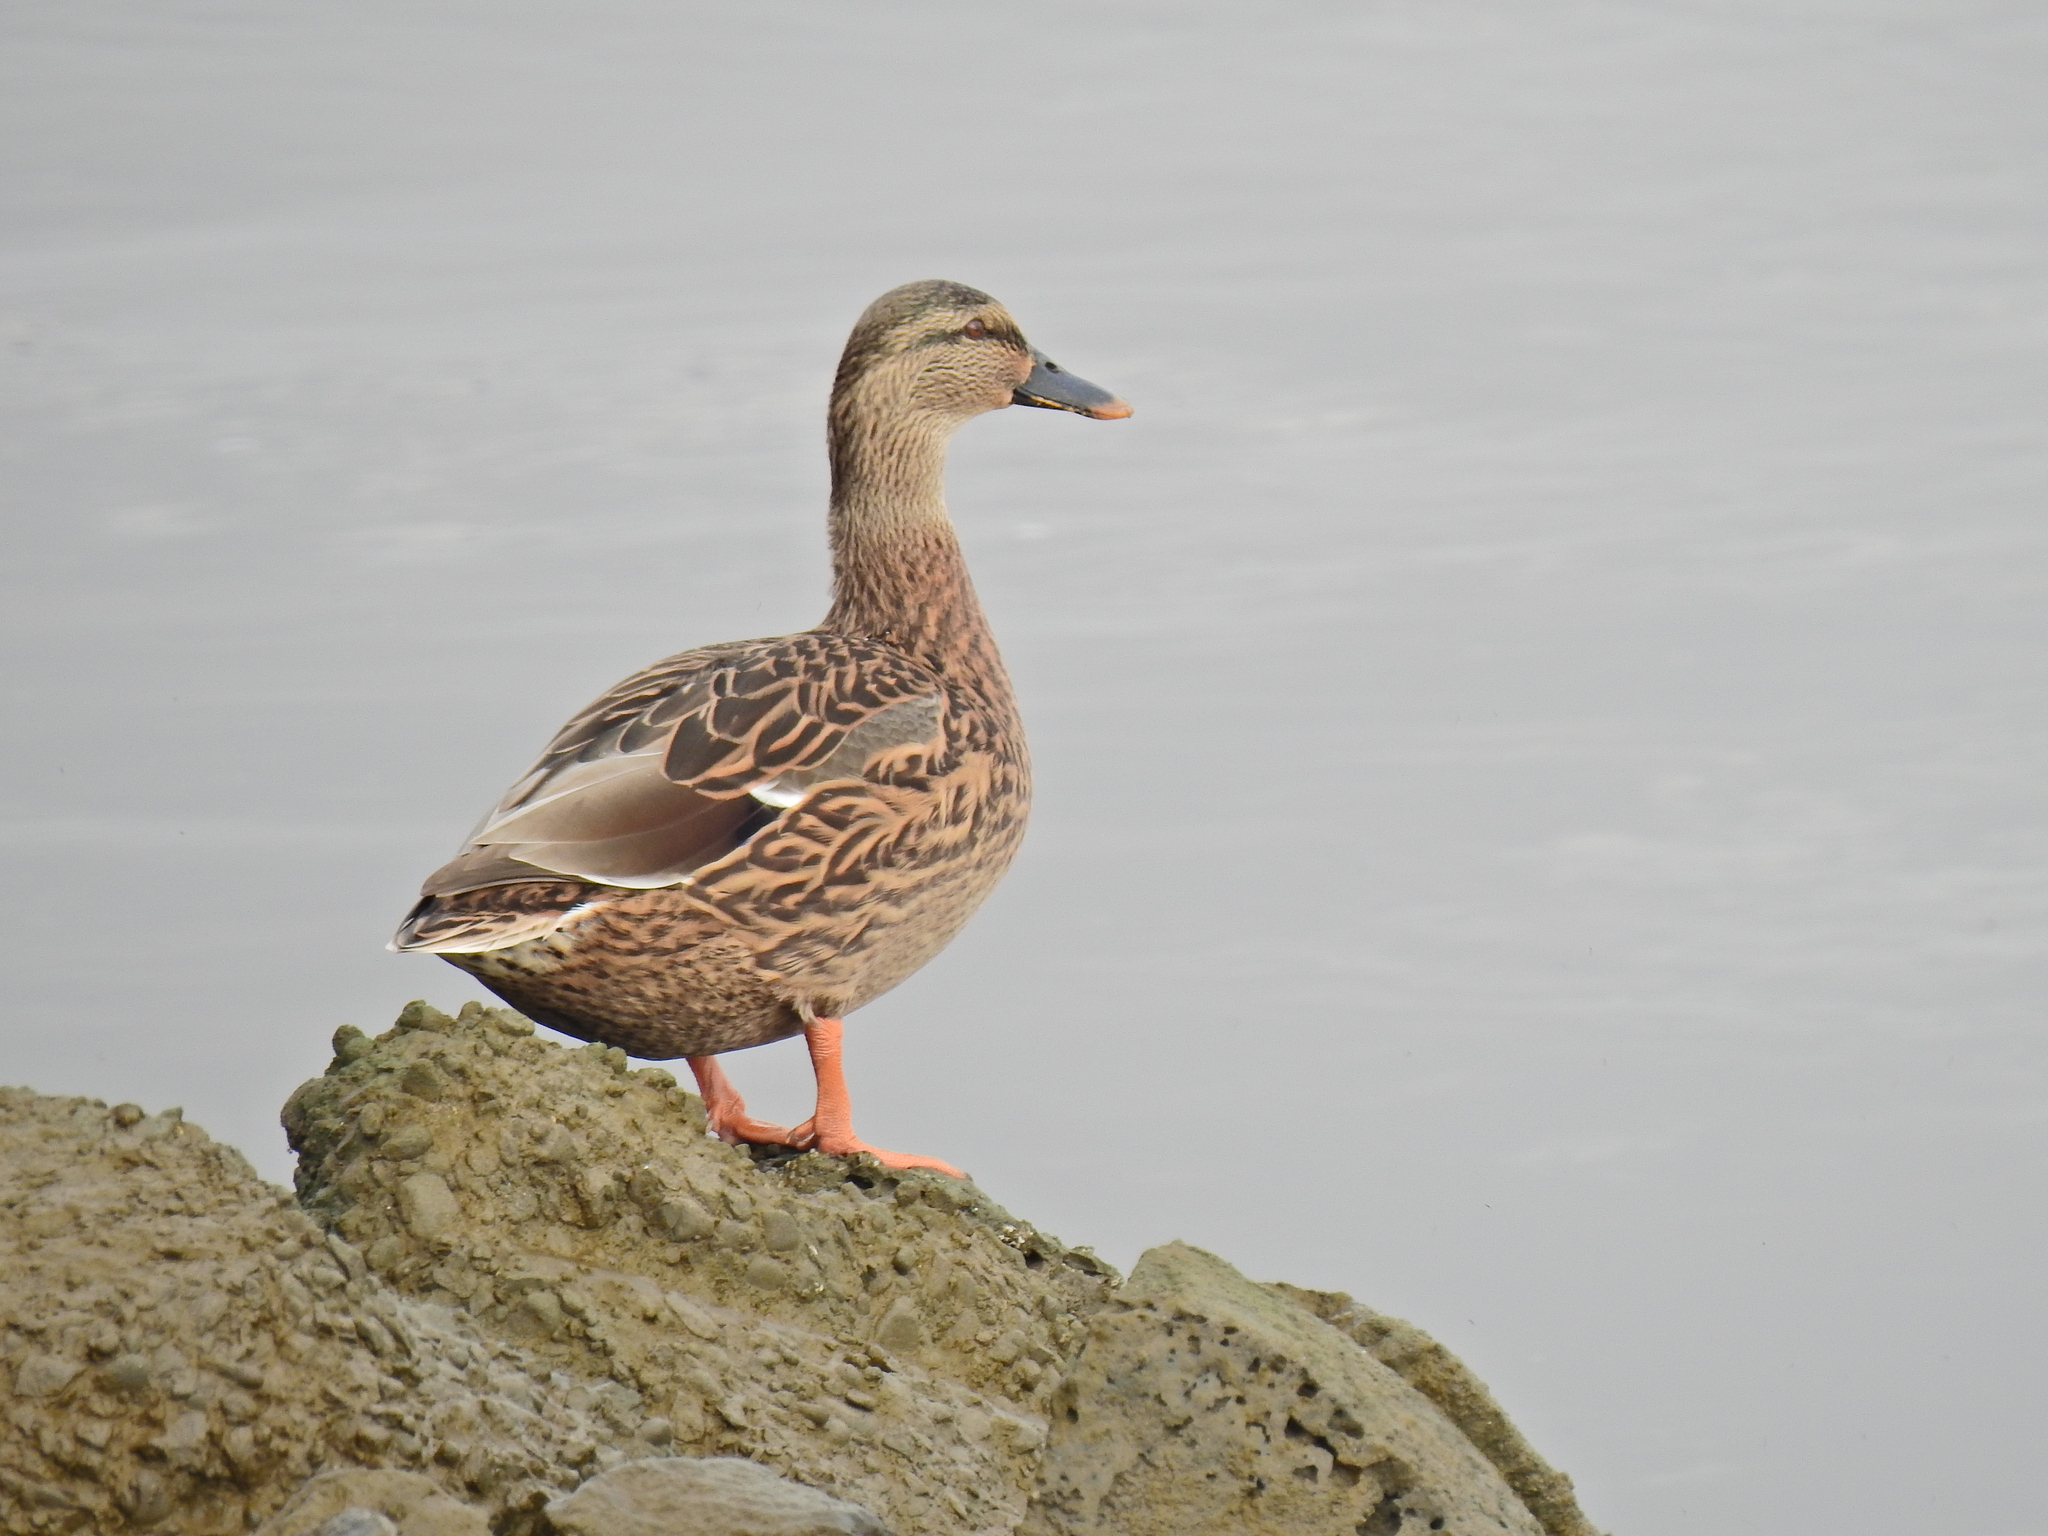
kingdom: Animalia
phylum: Chordata
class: Aves
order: Anseriformes
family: Anatidae
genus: Anas
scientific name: Anas platyrhynchos
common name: Mallard
